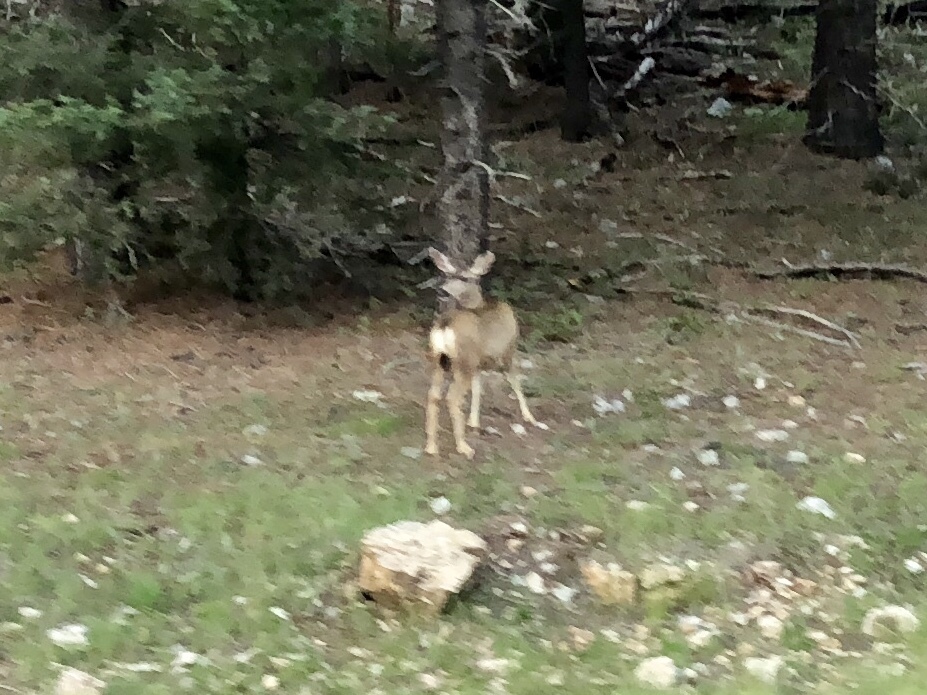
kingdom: Animalia
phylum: Chordata
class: Mammalia
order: Artiodactyla
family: Cervidae
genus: Odocoileus
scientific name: Odocoileus hemionus
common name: Mule deer
